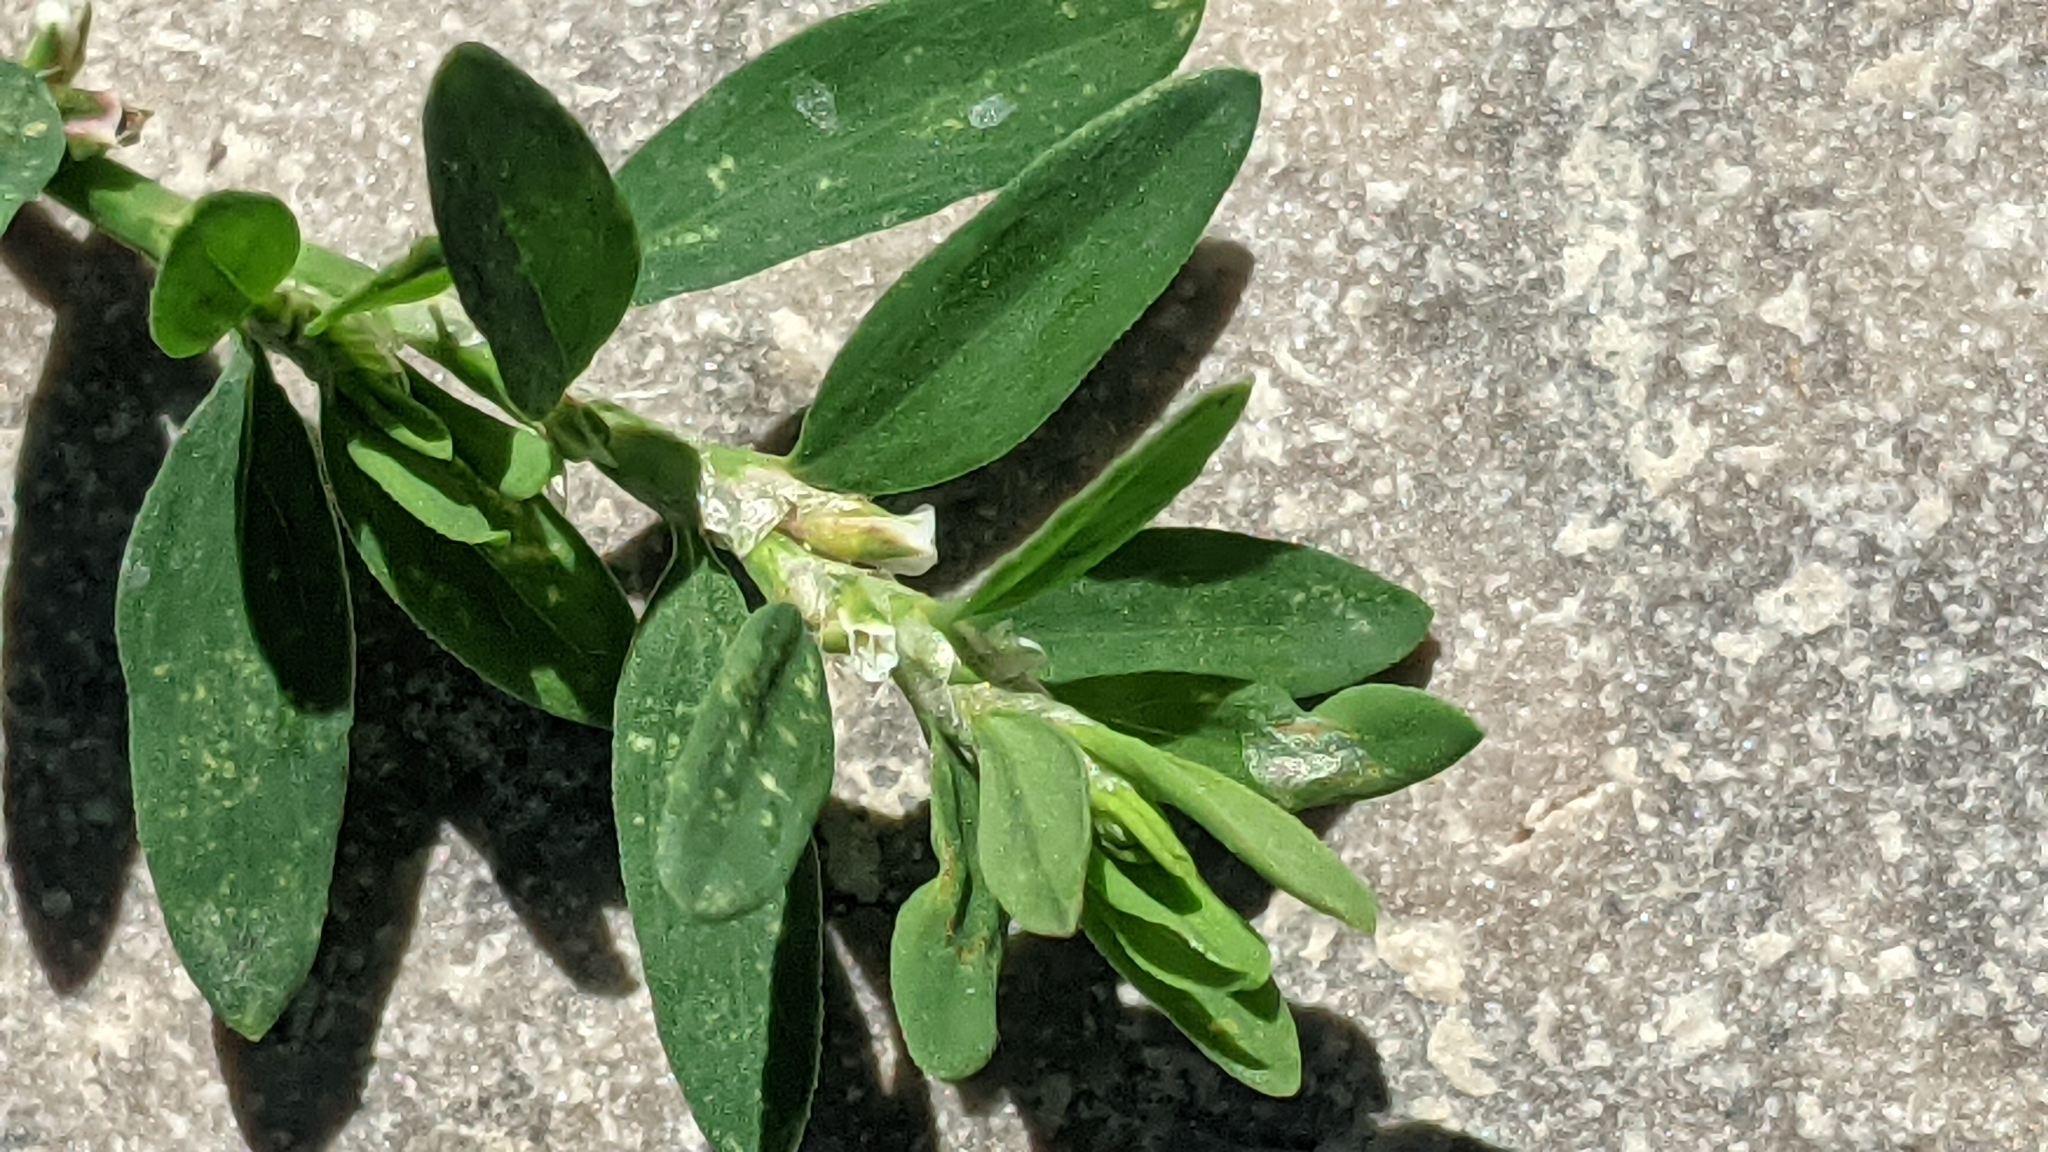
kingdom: Plantae
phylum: Tracheophyta
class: Magnoliopsida
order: Caryophyllales
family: Polygonaceae
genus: Polygonum
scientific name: Polygonum aviculare
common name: Prostrate knotweed
